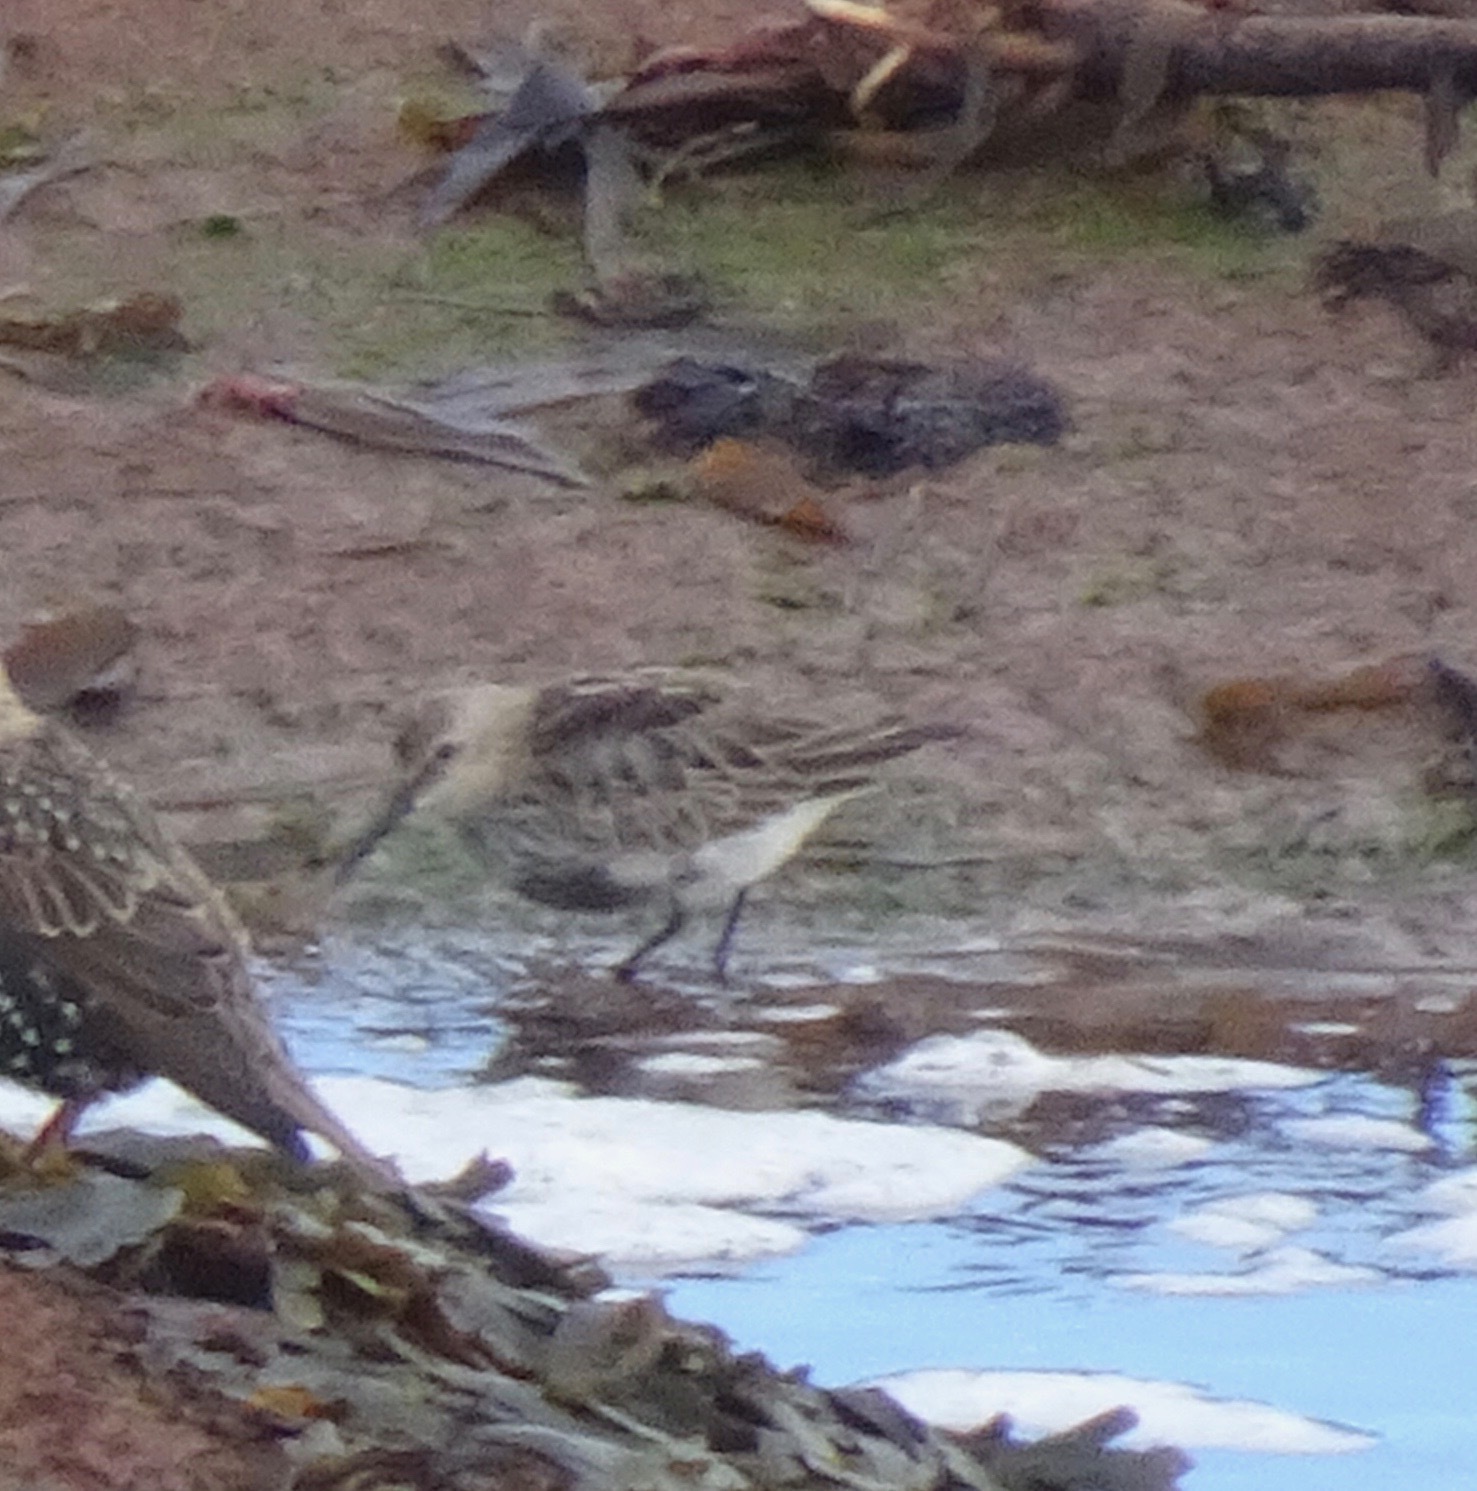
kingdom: Animalia
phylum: Chordata
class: Aves
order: Charadriiformes
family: Scolopacidae
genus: Calidris
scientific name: Calidris alpina
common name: Dunlin
